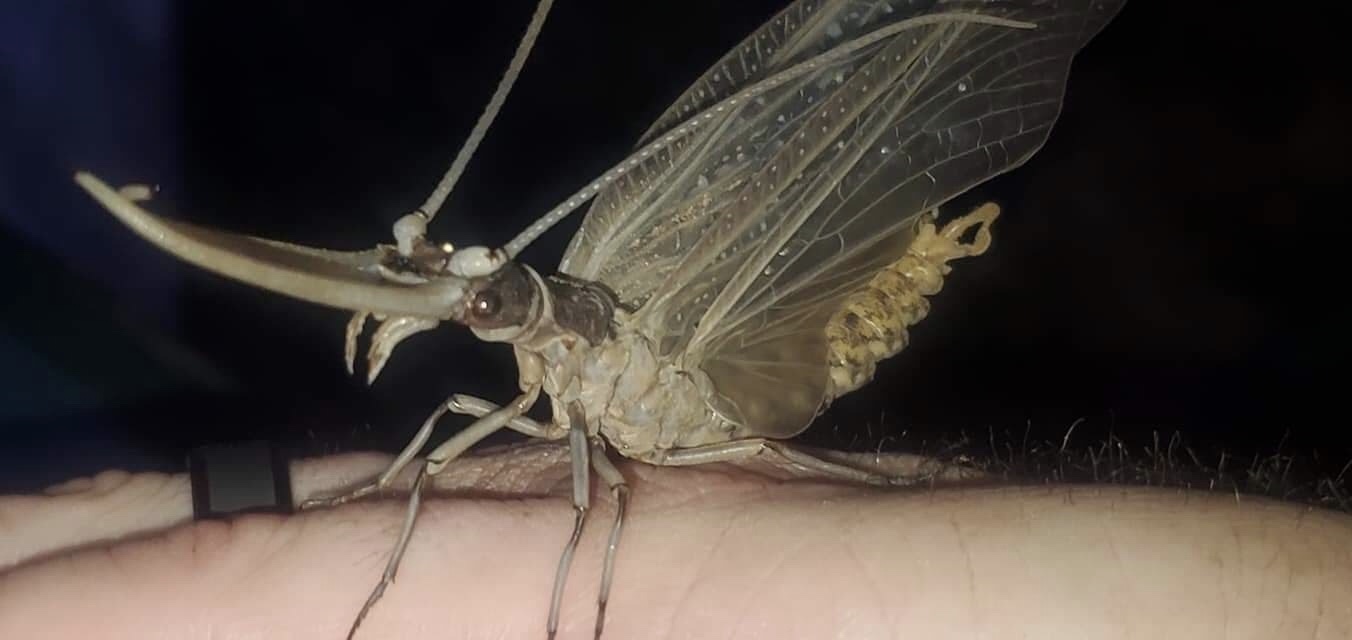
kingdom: Animalia
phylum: Arthropoda
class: Insecta
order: Megaloptera
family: Corydalidae
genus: Corydalus
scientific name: Corydalus cornutus
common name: Dobsonfly
